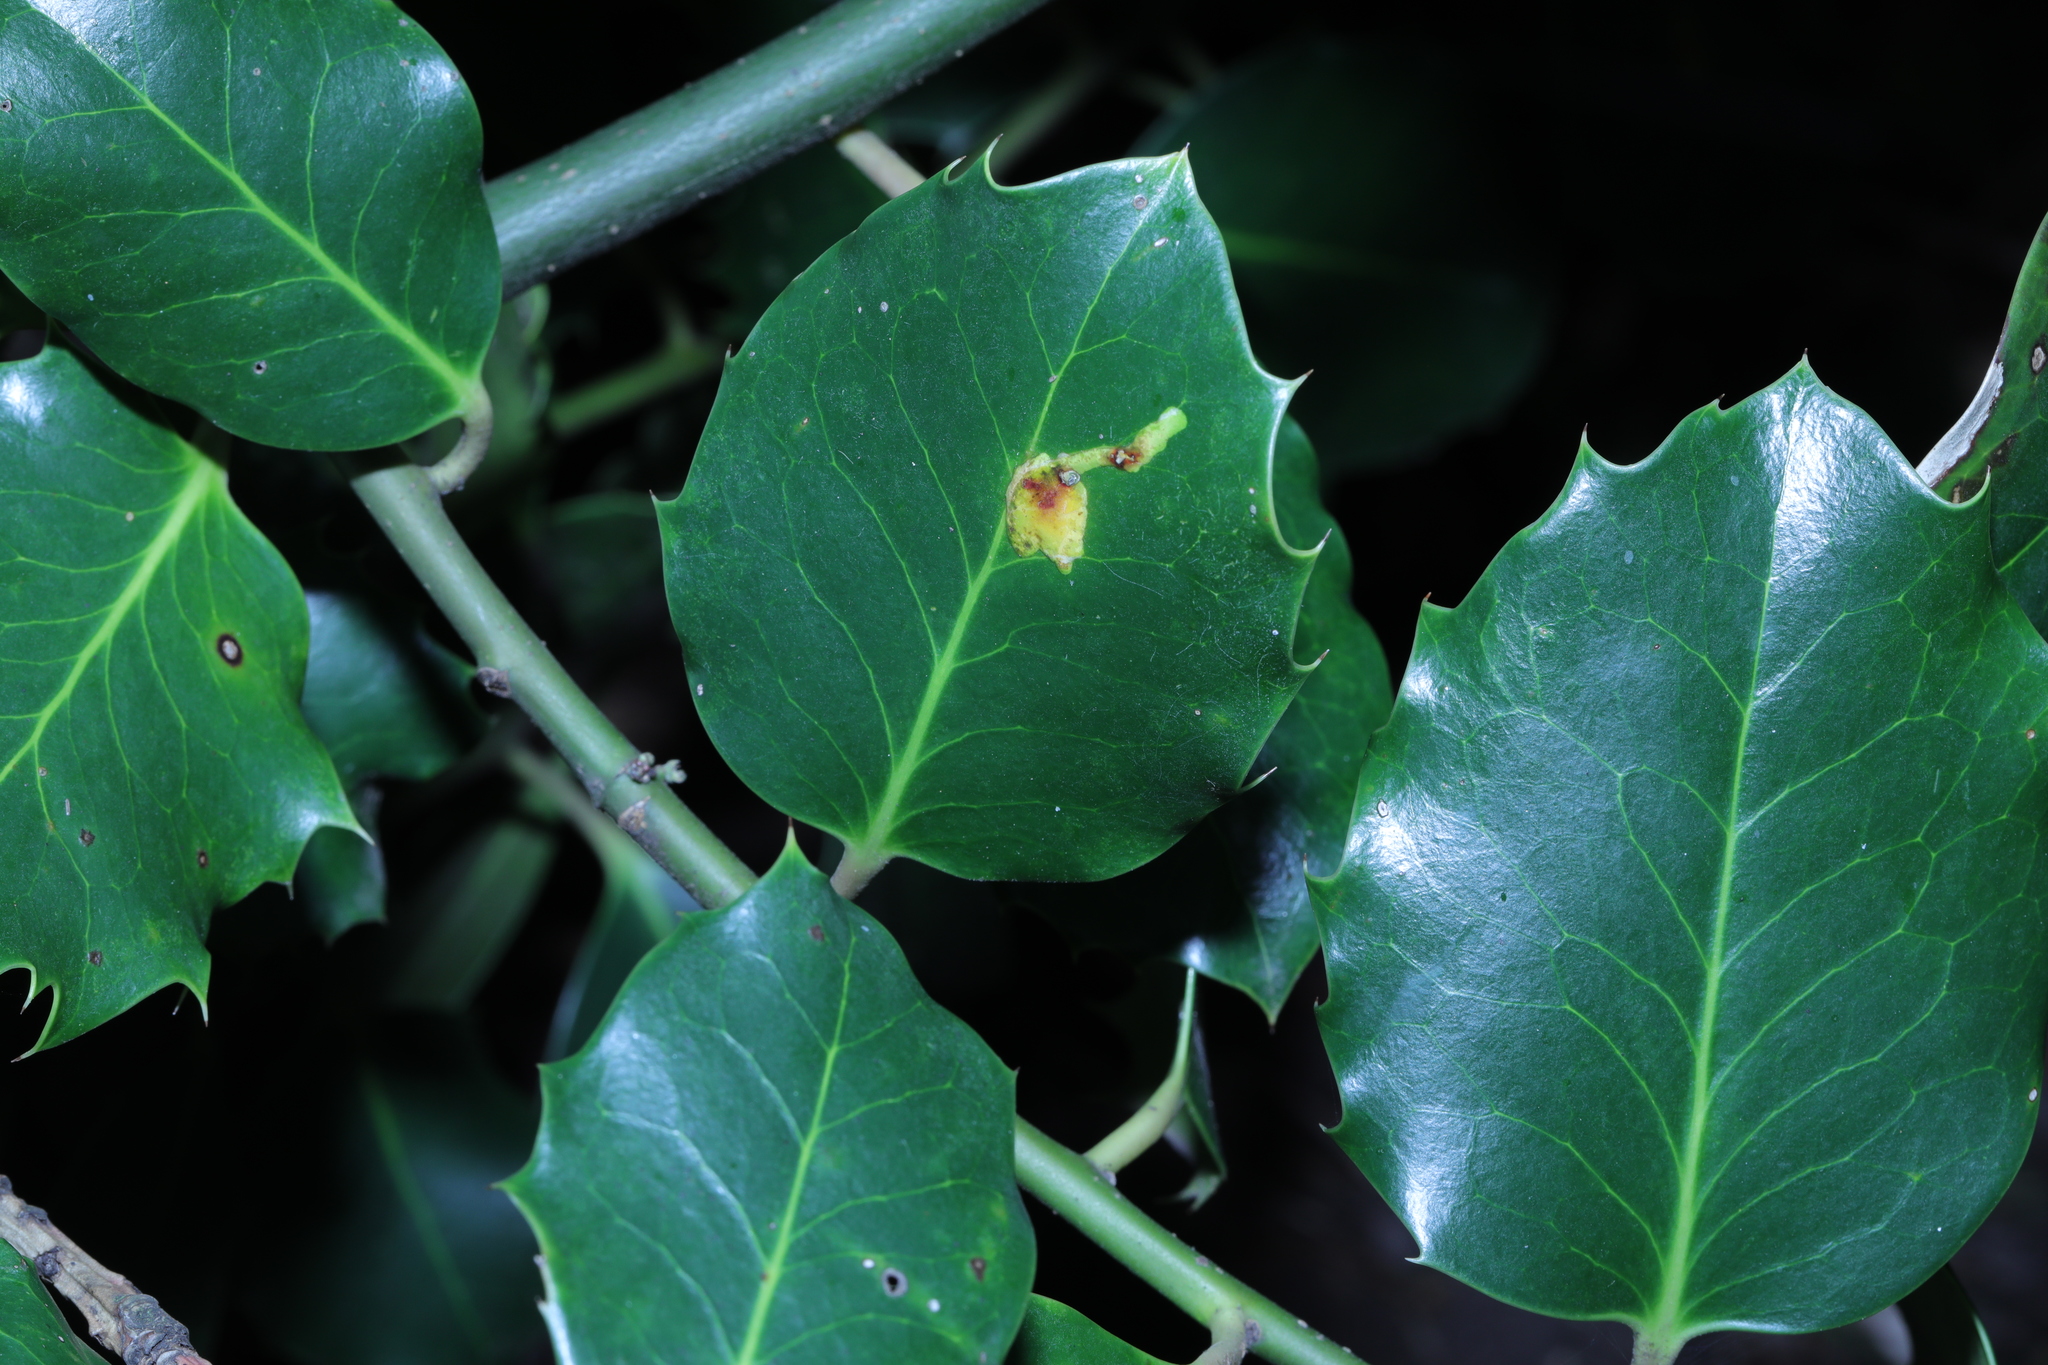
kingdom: Animalia
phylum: Arthropoda
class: Insecta
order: Diptera
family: Agromyzidae
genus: Phytomyza
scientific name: Phytomyza ilicis
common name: Holly leafminer
